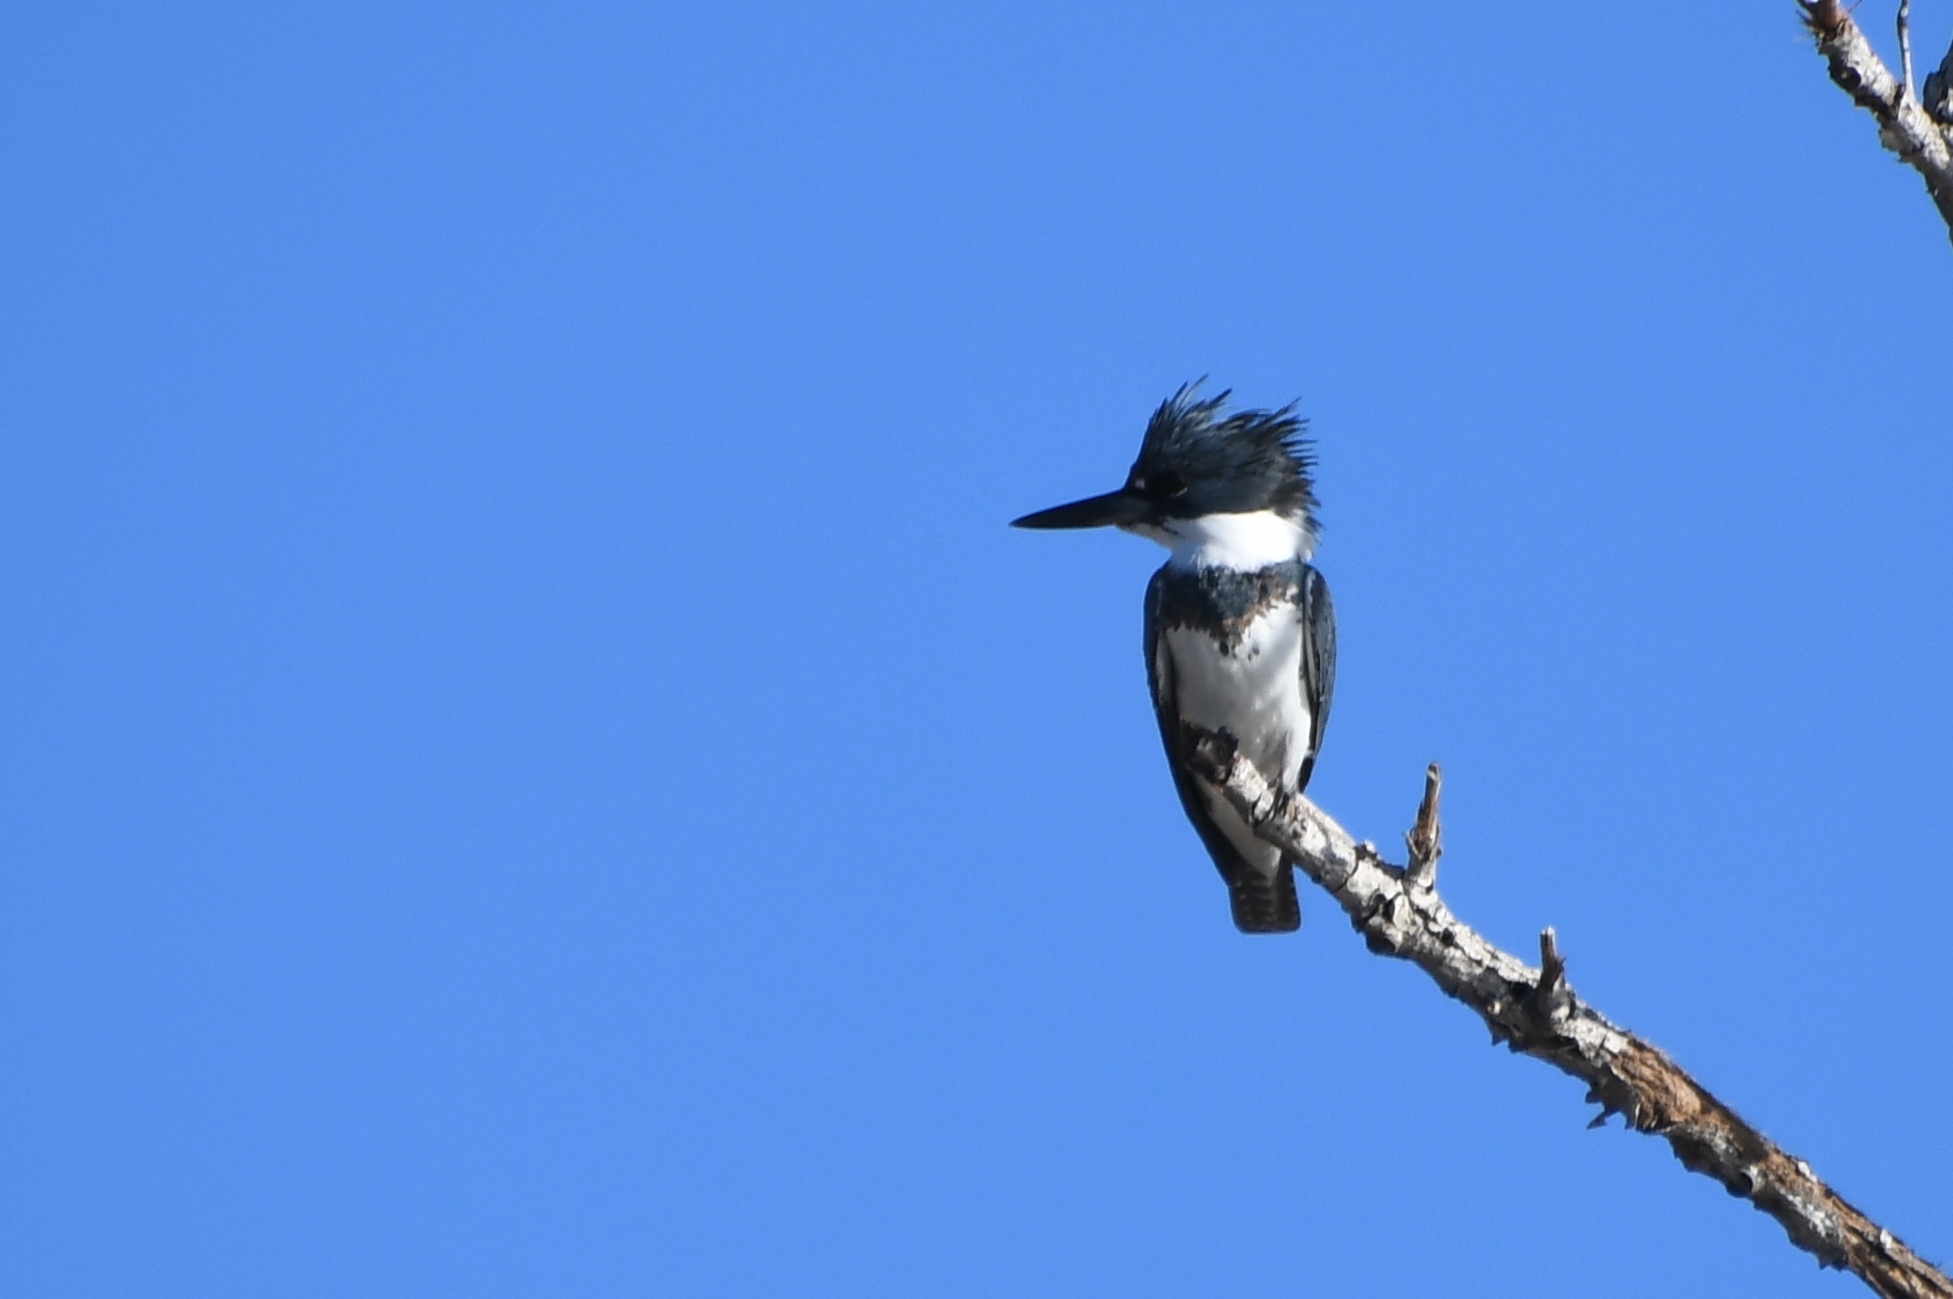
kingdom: Animalia
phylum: Chordata
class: Aves
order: Coraciiformes
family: Alcedinidae
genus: Megaceryle
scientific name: Megaceryle alcyon
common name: Belted kingfisher
